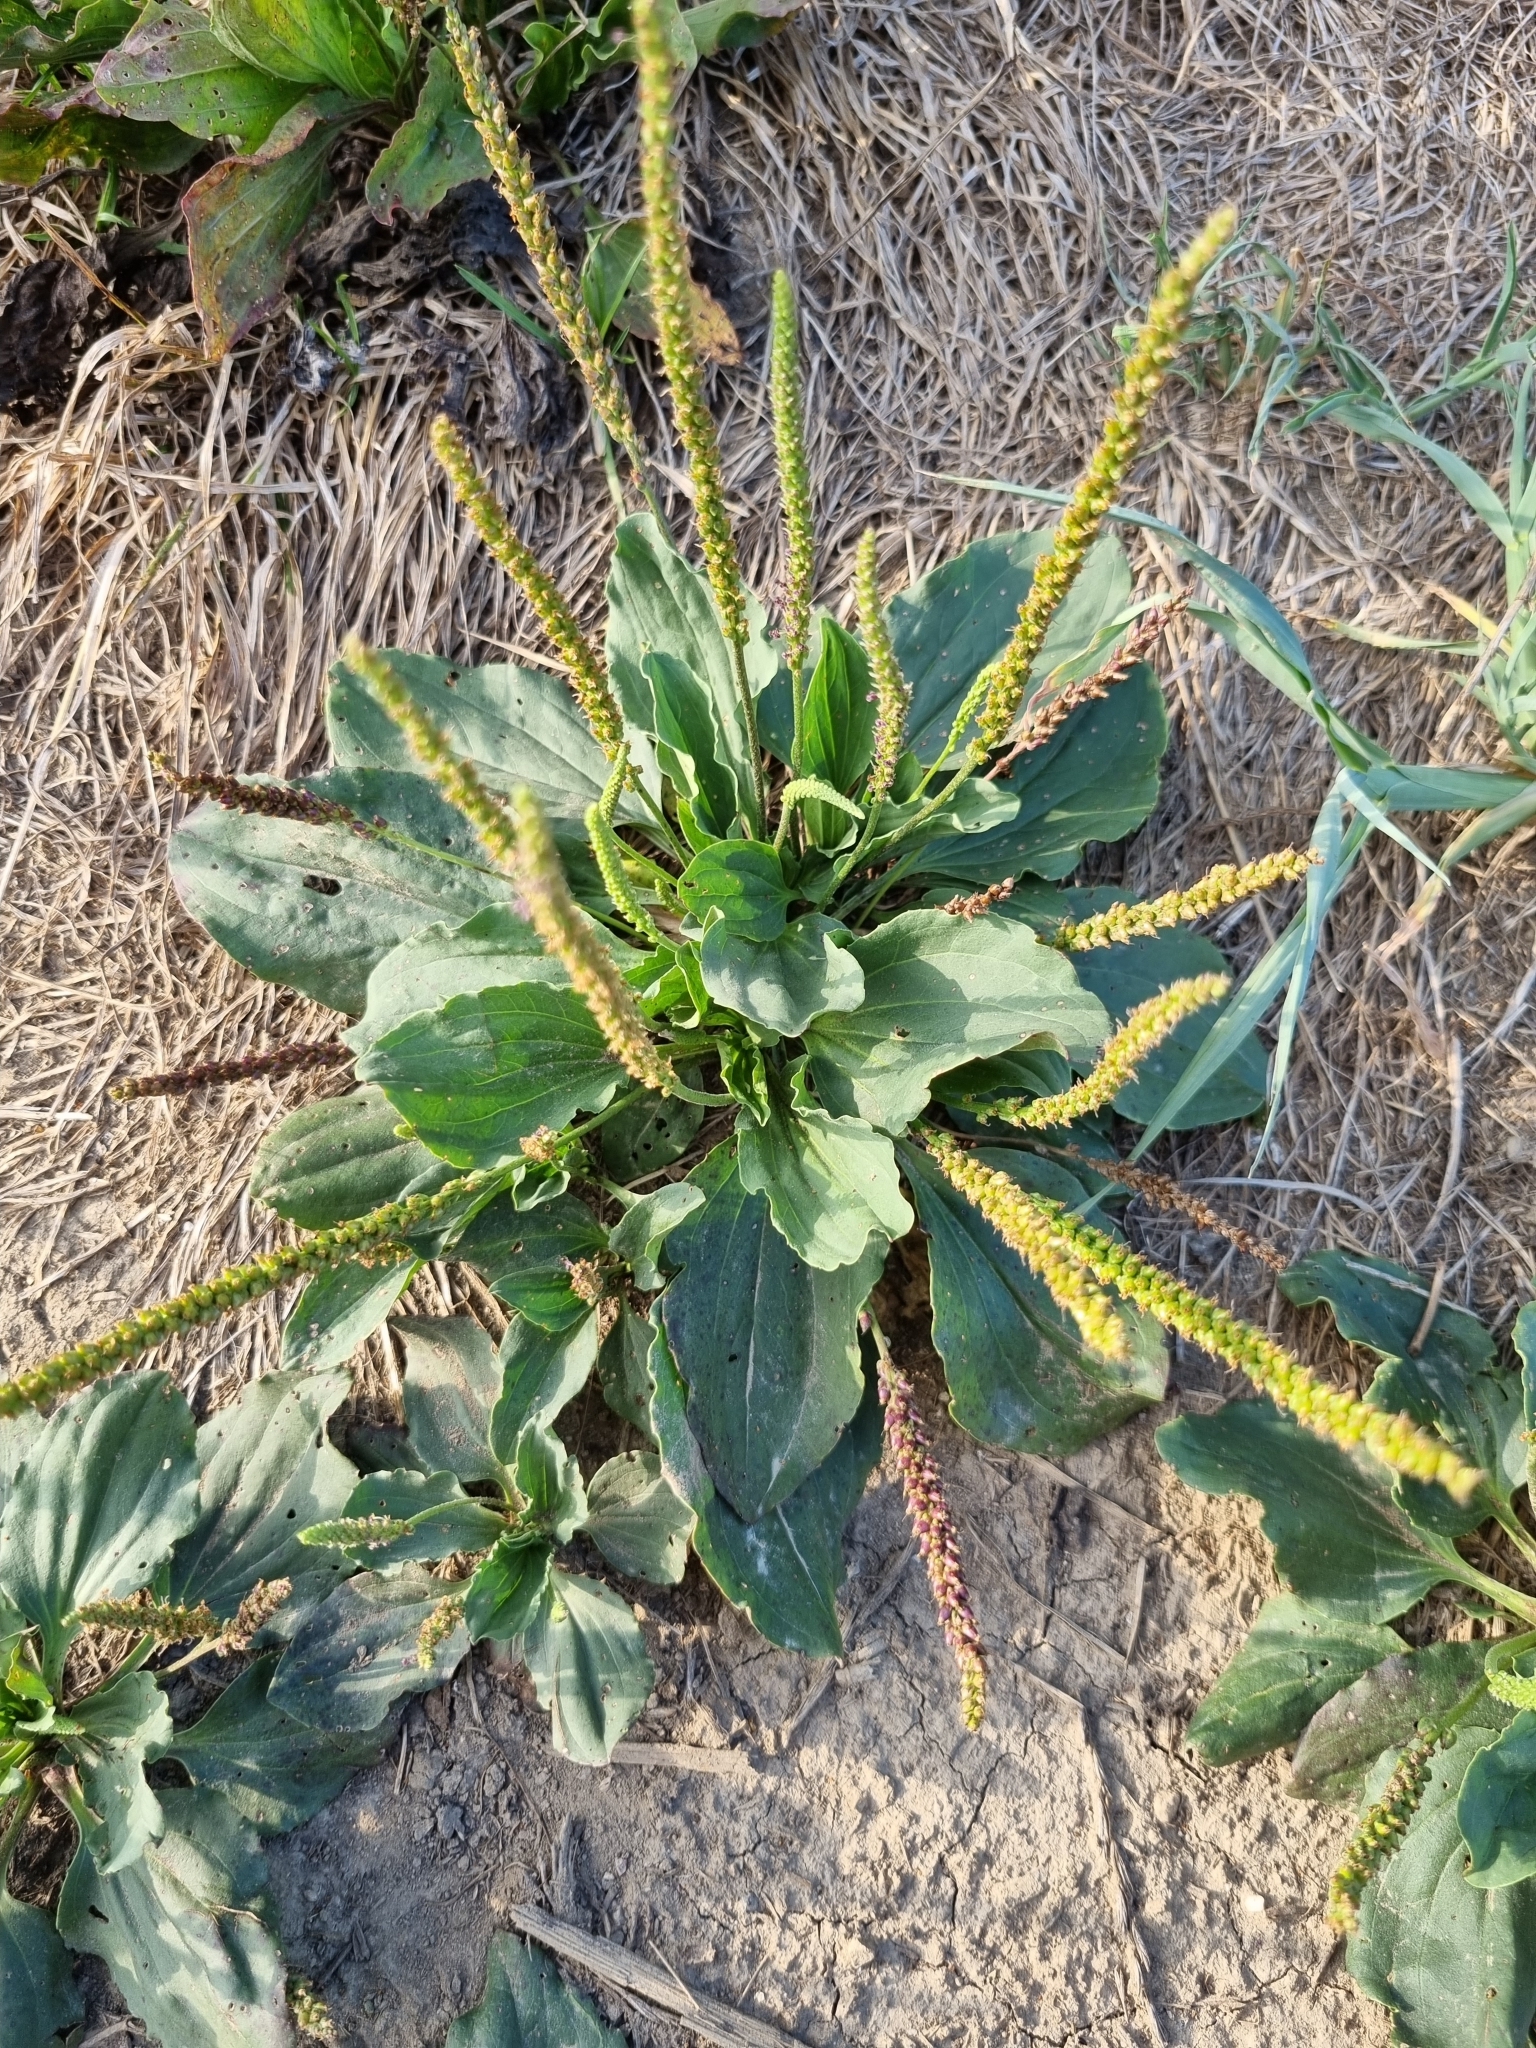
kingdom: Plantae
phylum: Tracheophyta
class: Magnoliopsida
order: Lamiales
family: Plantaginaceae
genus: Plantago
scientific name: Plantago major
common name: Common plantain
